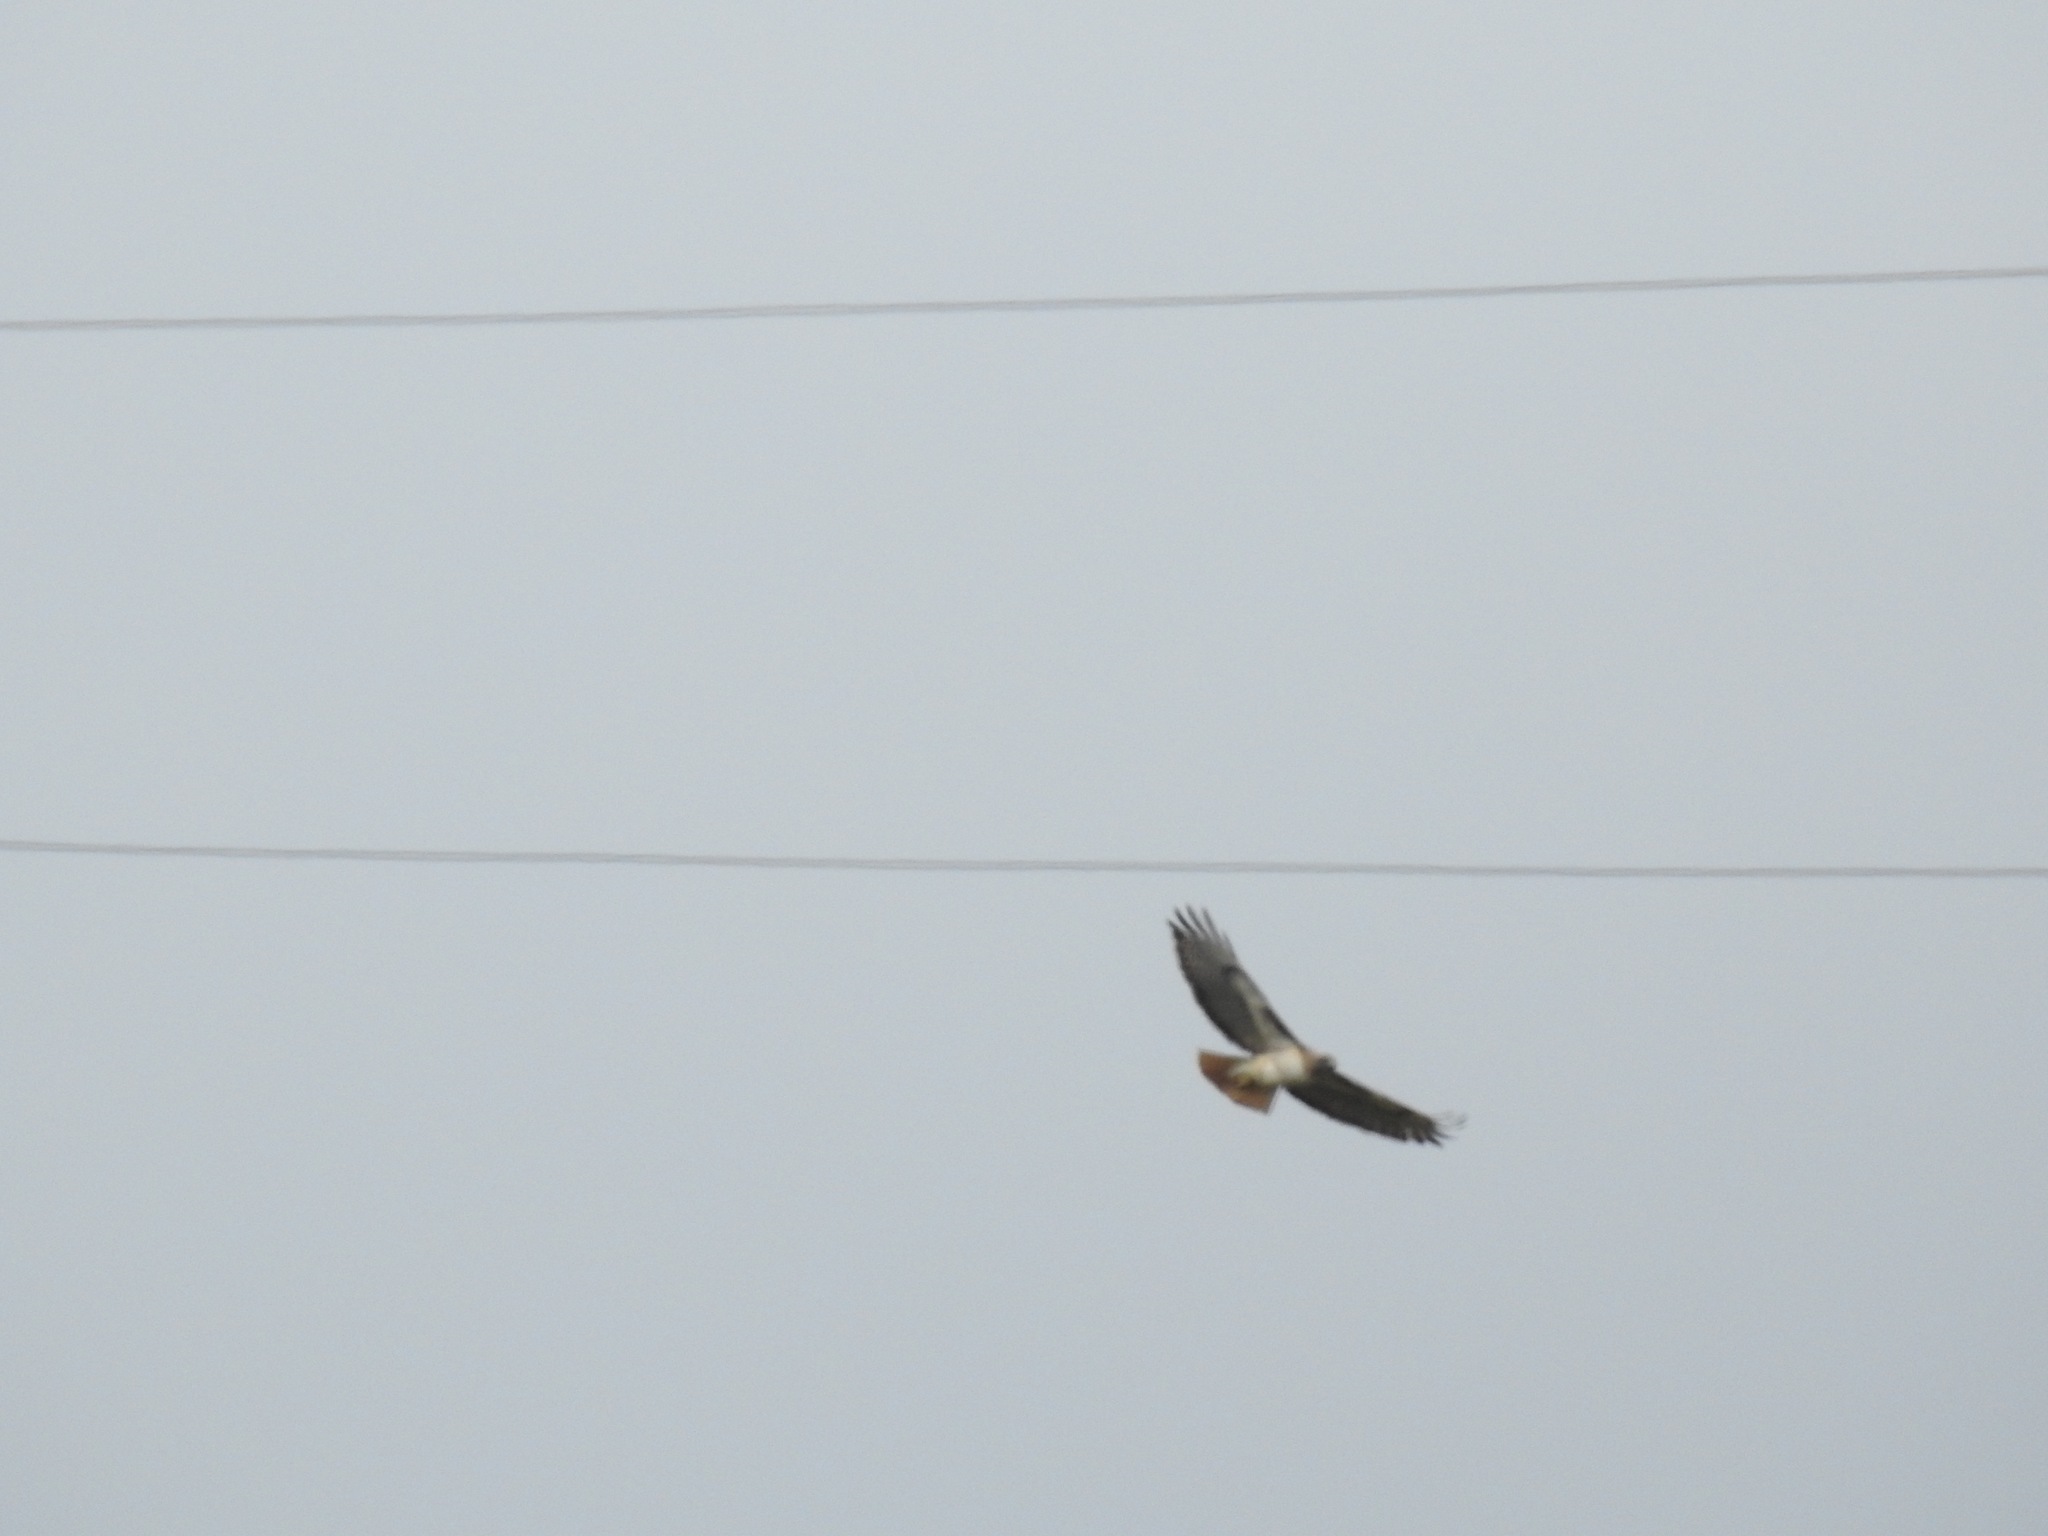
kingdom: Animalia
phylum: Chordata
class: Aves
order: Accipitriformes
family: Accipitridae
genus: Buteo
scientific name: Buteo jamaicensis
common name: Red-tailed hawk
